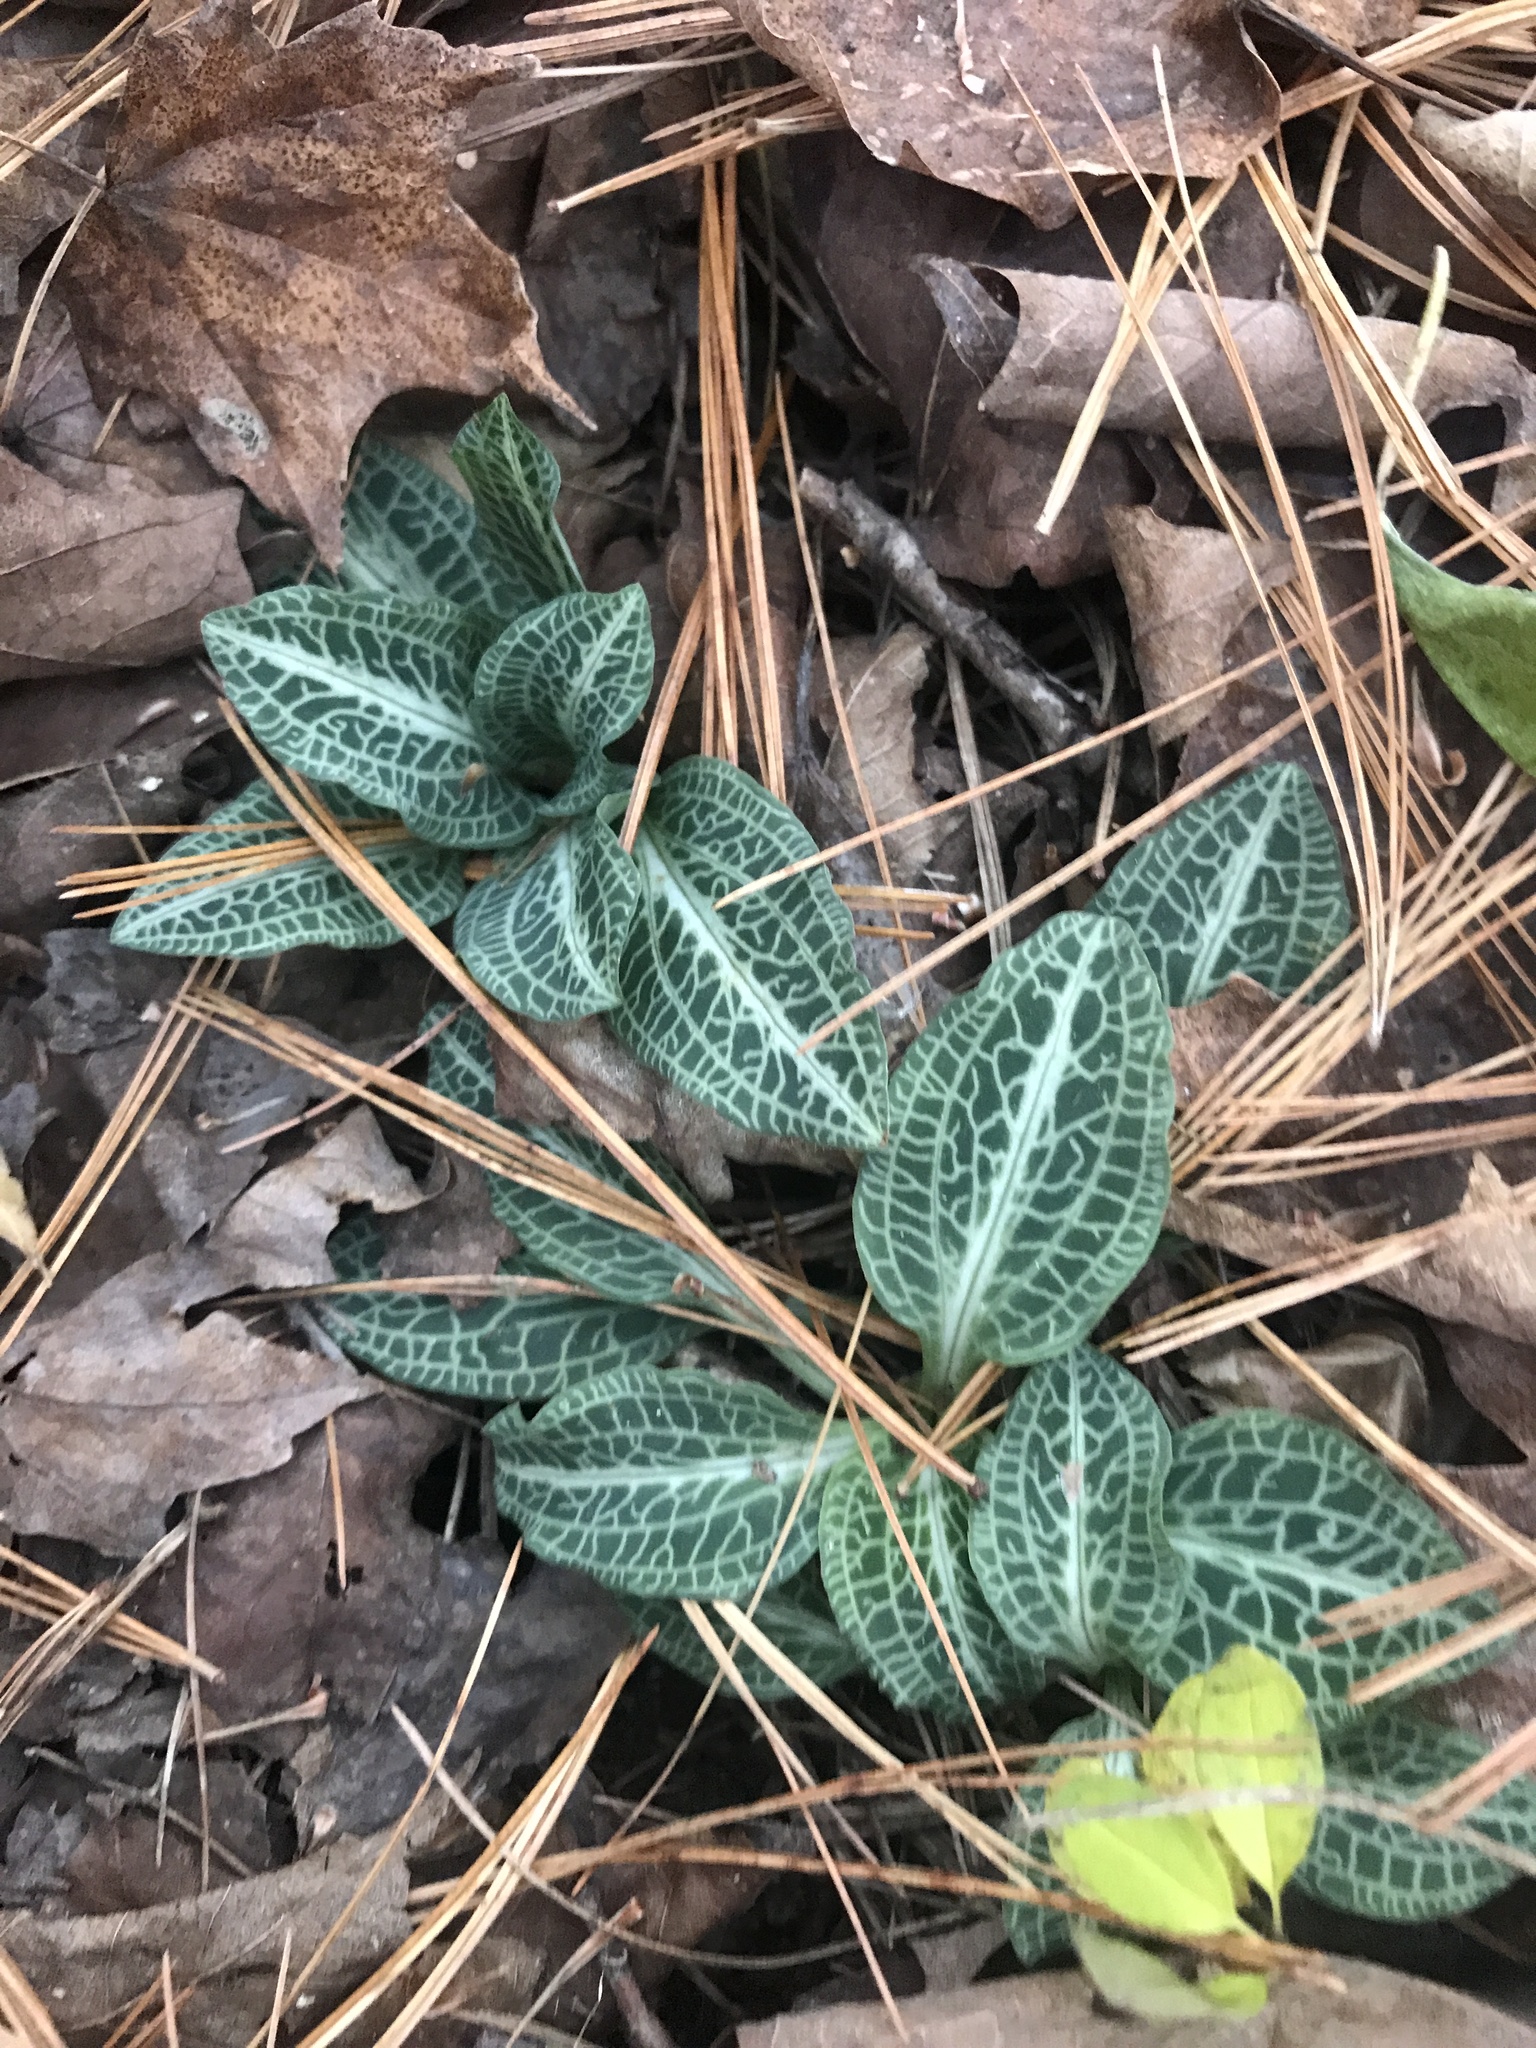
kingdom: Plantae
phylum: Tracheophyta
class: Liliopsida
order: Asparagales
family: Orchidaceae
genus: Goodyera
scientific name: Goodyera pubescens
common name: Downy rattlesnake-plantain
